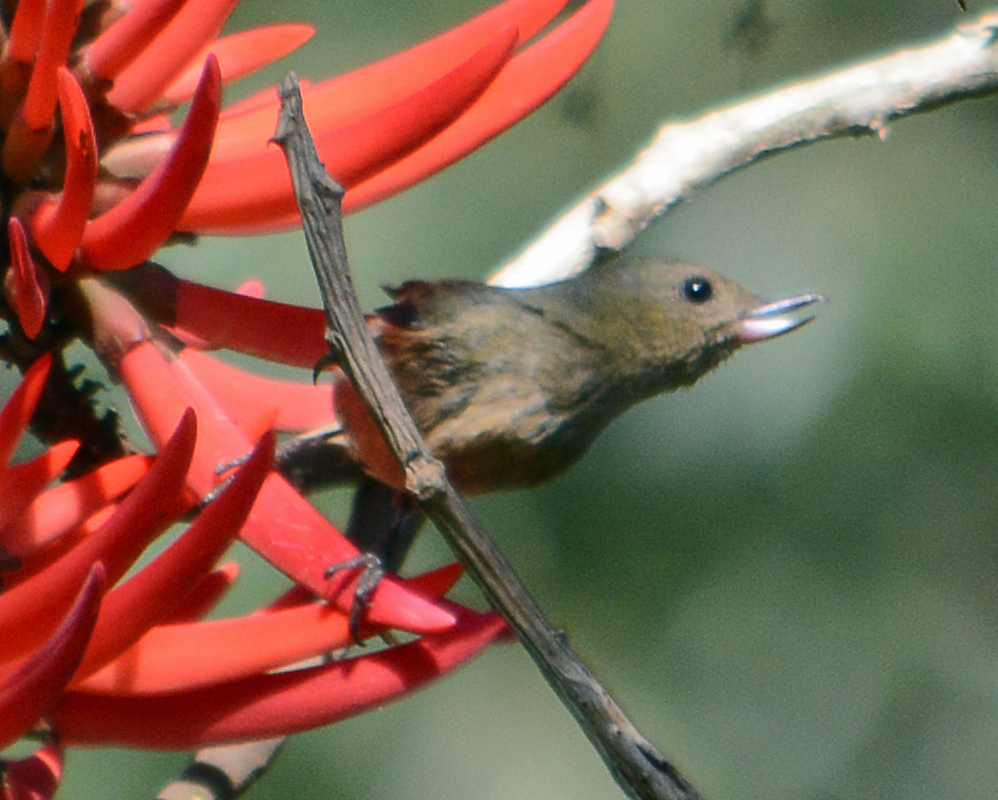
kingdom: Animalia
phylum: Chordata
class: Aves
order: Passeriformes
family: Thraupidae
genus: Diglossa
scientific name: Diglossa baritula
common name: Cinnamon-bellied flowerpiercer
